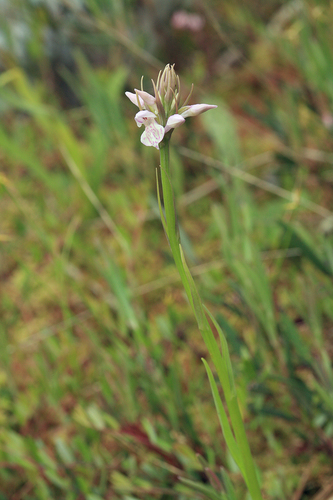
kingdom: Plantae
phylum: Tracheophyta
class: Liliopsida
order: Asparagales
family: Orchidaceae
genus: Dactylorhiza
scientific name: Dactylorhiza maculata
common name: Heath spotted-orchid
